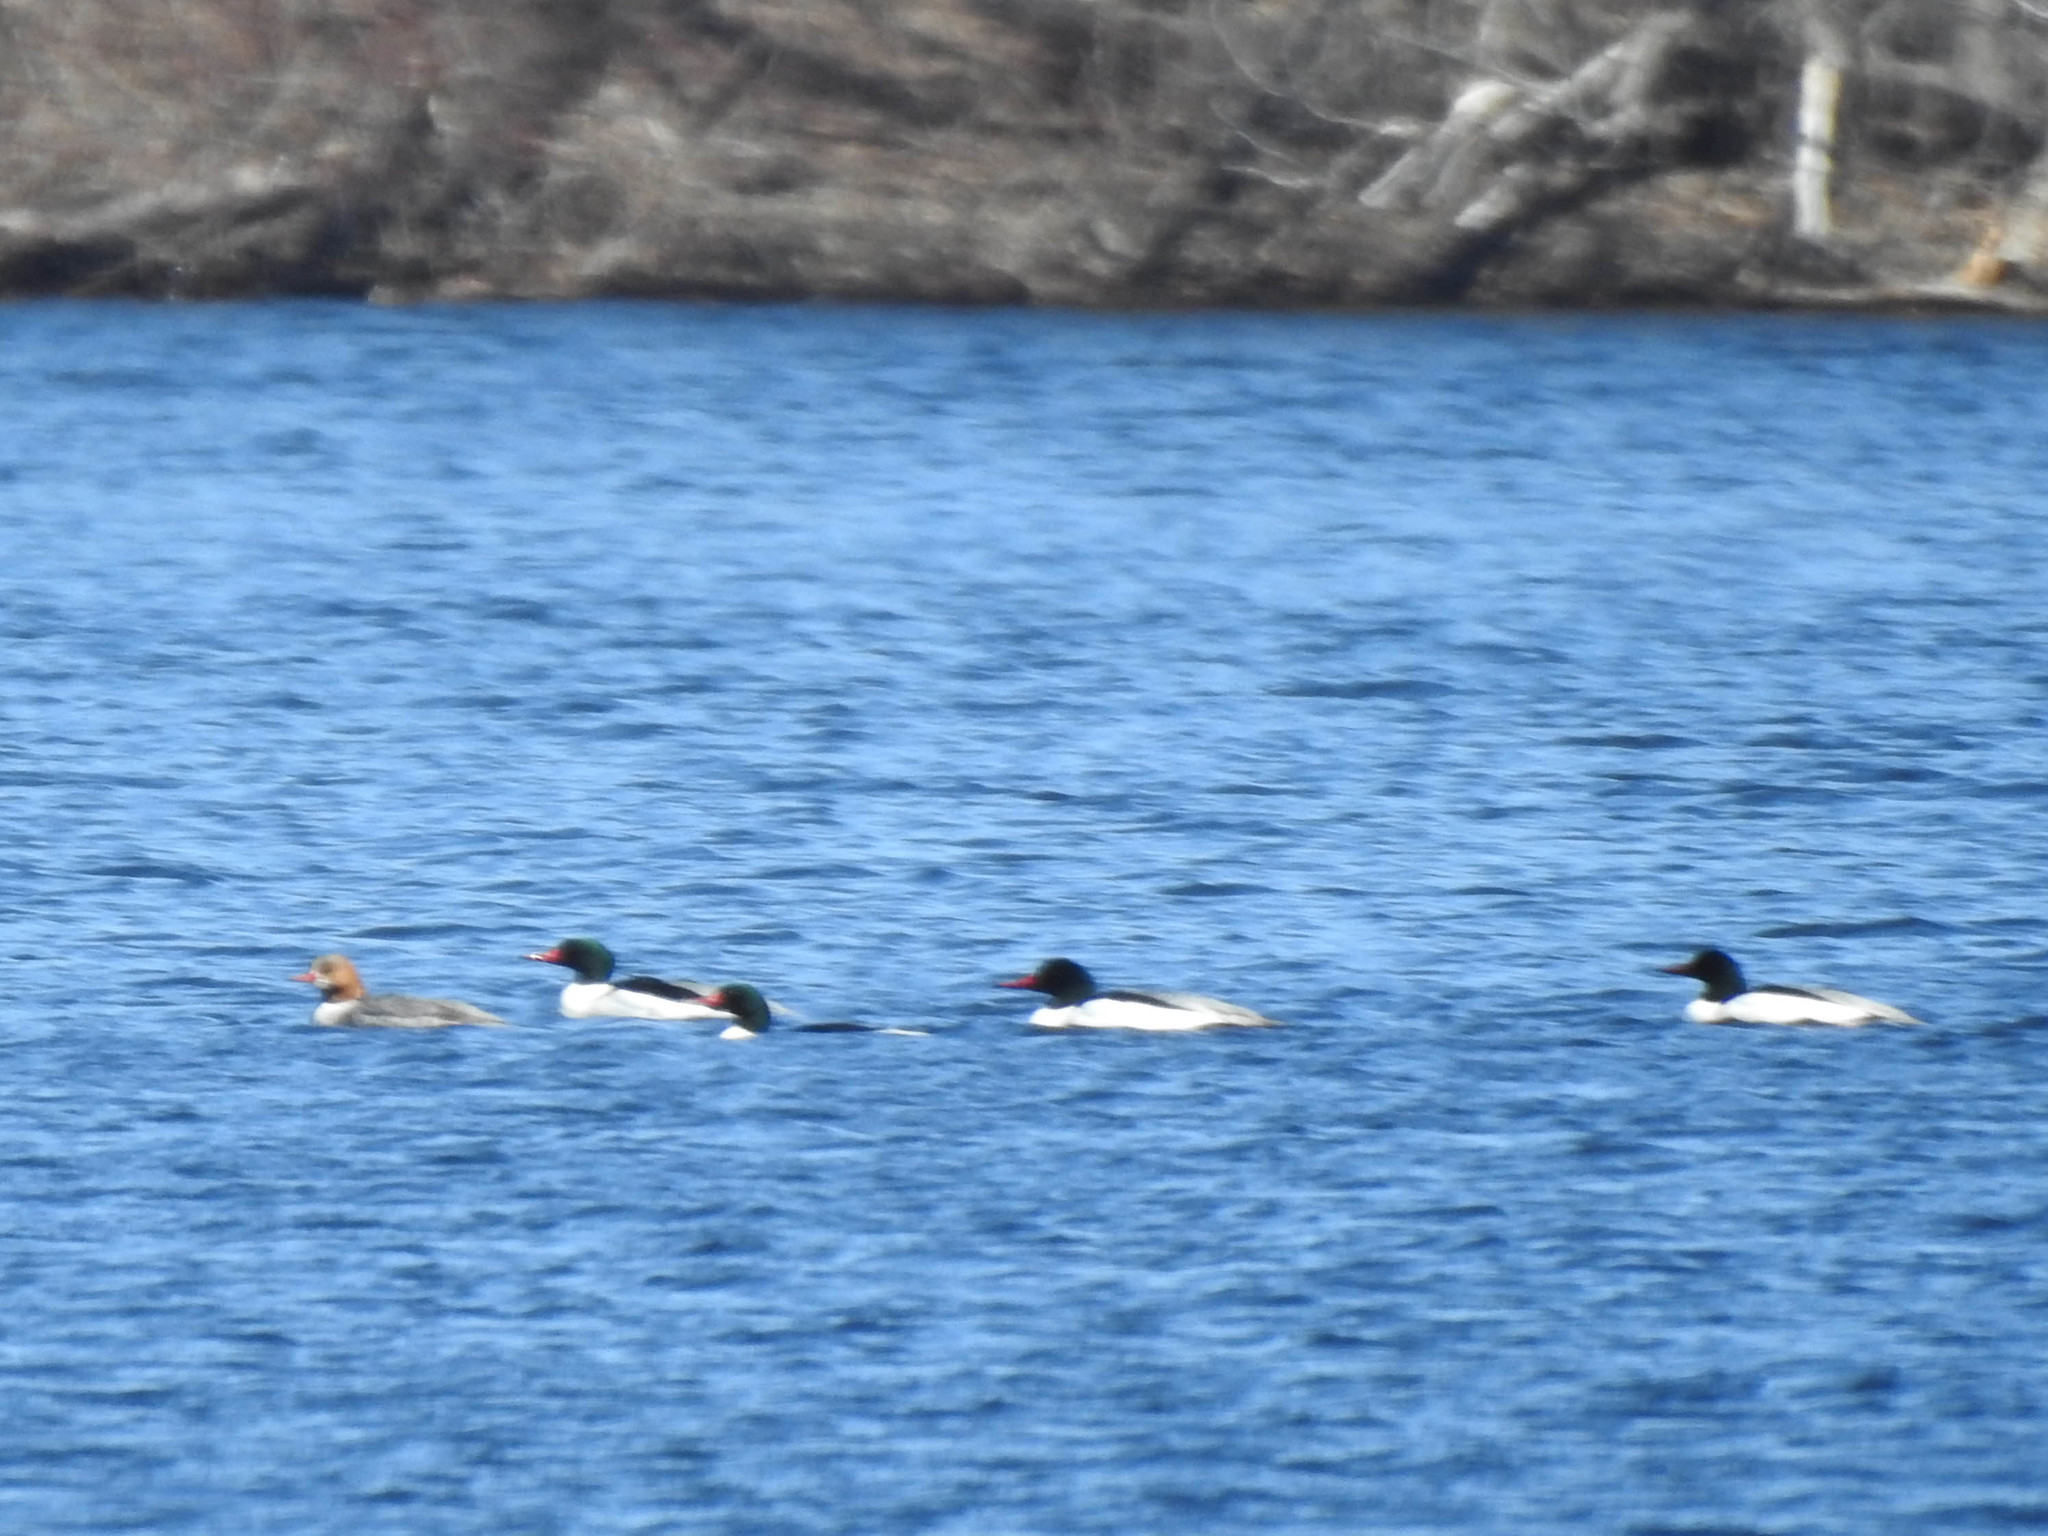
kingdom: Animalia
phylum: Chordata
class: Aves
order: Anseriformes
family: Anatidae
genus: Mergus
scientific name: Mergus merganser
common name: Common merganser
